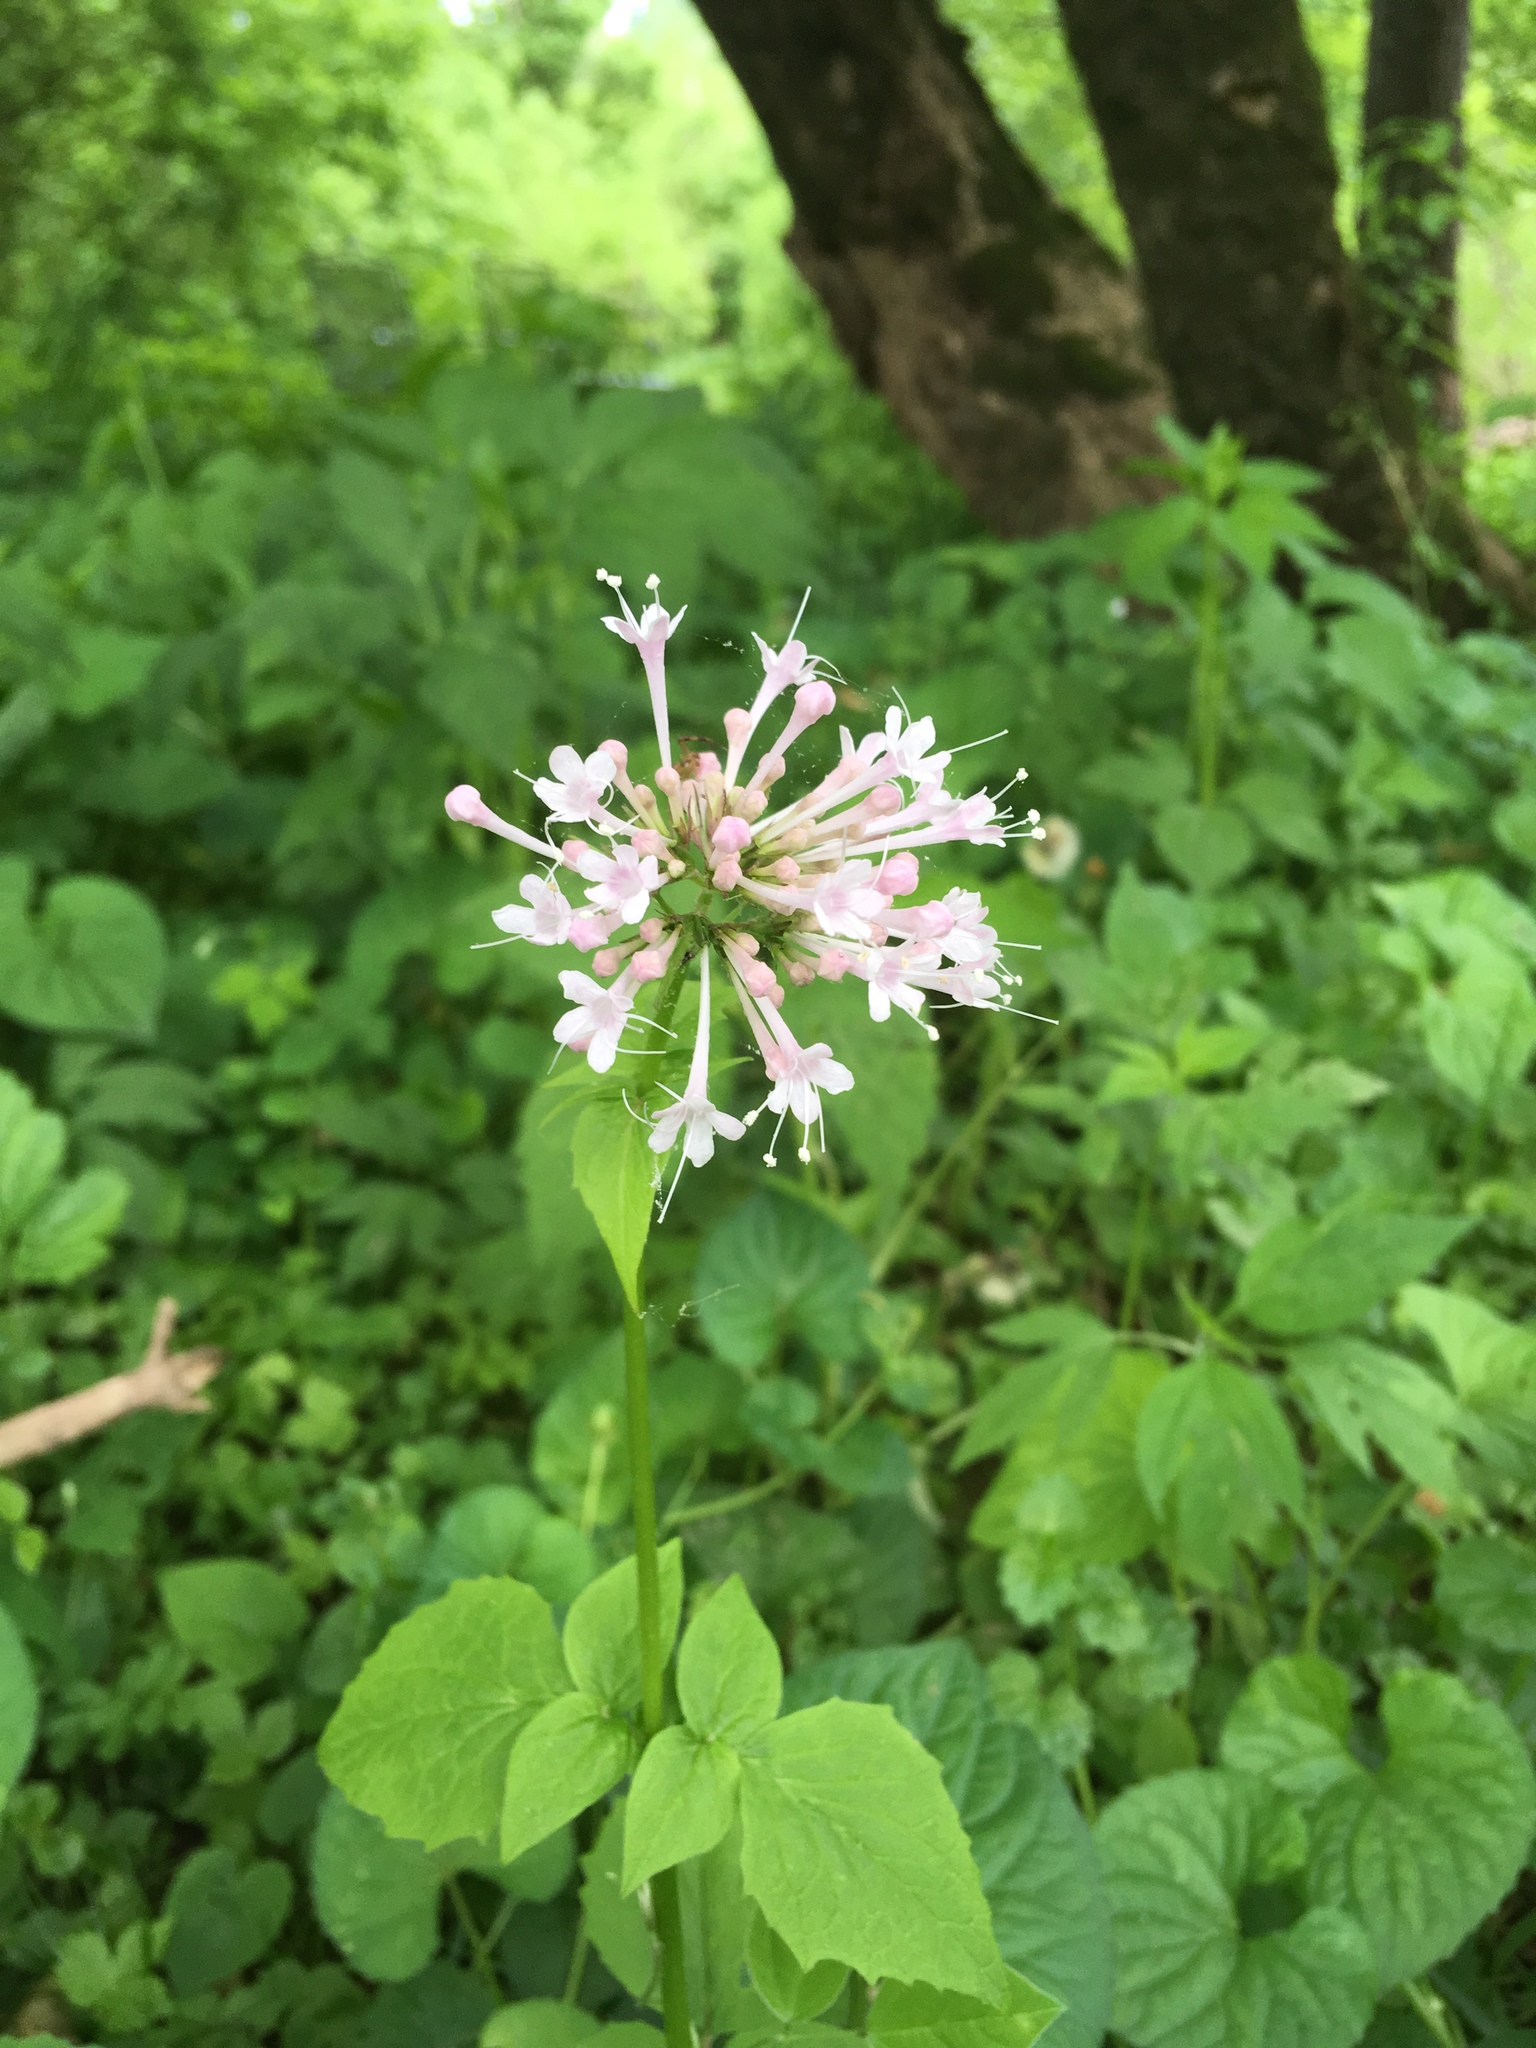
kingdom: Plantae
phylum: Tracheophyta
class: Magnoliopsida
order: Dipsacales
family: Caprifoliaceae
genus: Valeriana
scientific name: Valeriana pauciflora
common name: Long-tube valeriana
